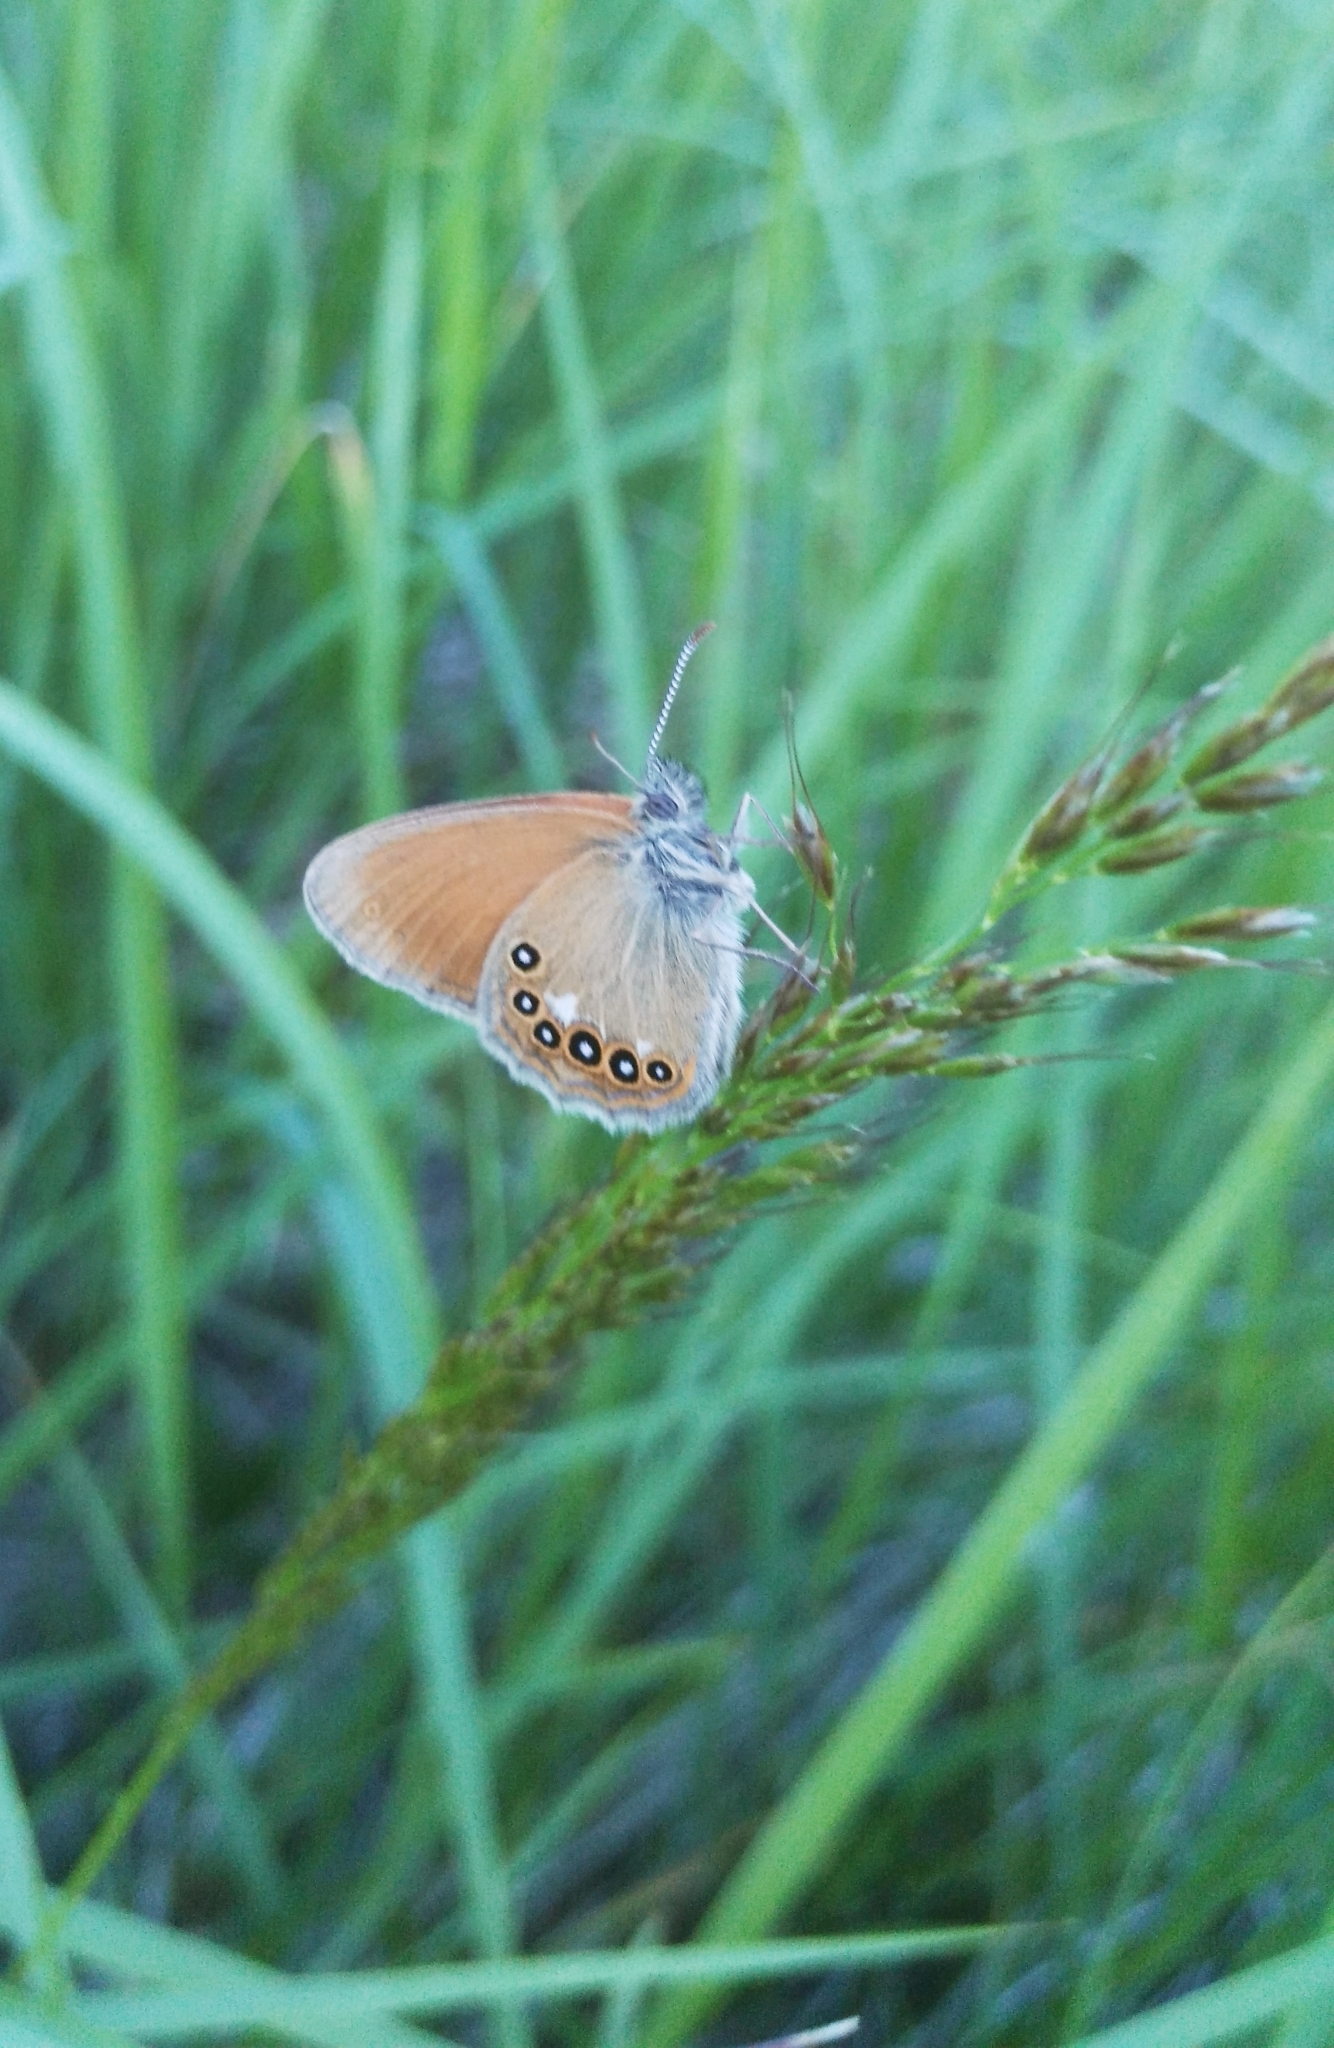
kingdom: Animalia
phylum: Arthropoda
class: Insecta
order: Lepidoptera
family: Nymphalidae
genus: Coenonympha
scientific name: Coenonympha iphis
